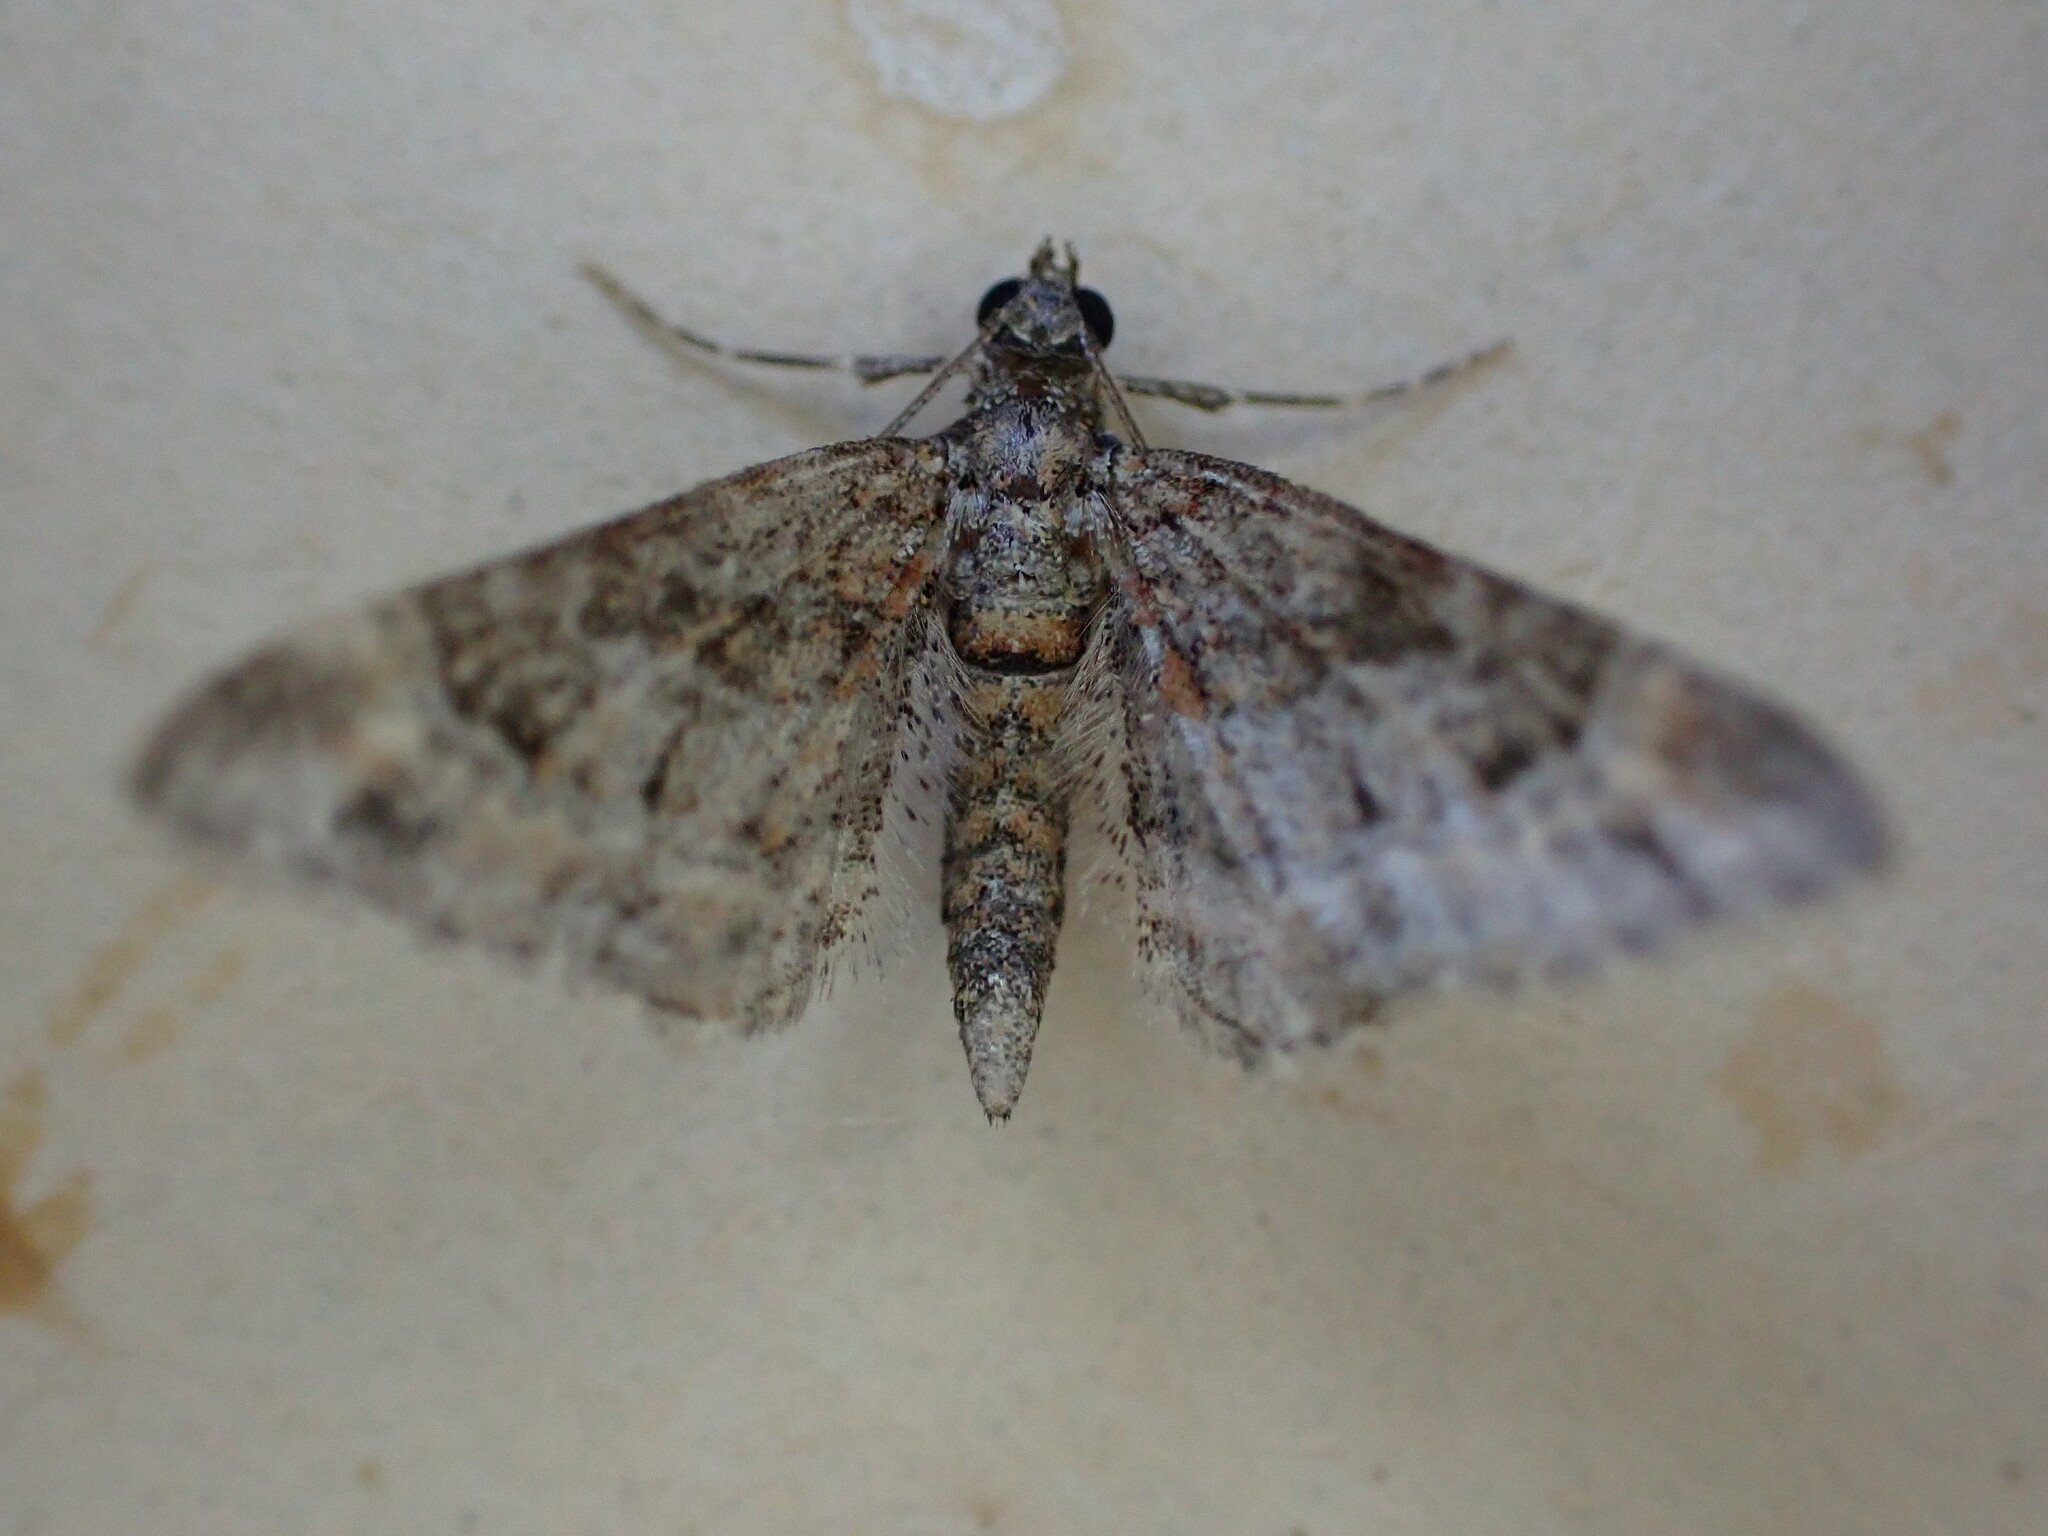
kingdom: Animalia
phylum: Arthropoda
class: Insecta
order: Lepidoptera
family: Geometridae
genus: Gymnoscelis
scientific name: Gymnoscelis rufifasciata
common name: Double-striped pug
